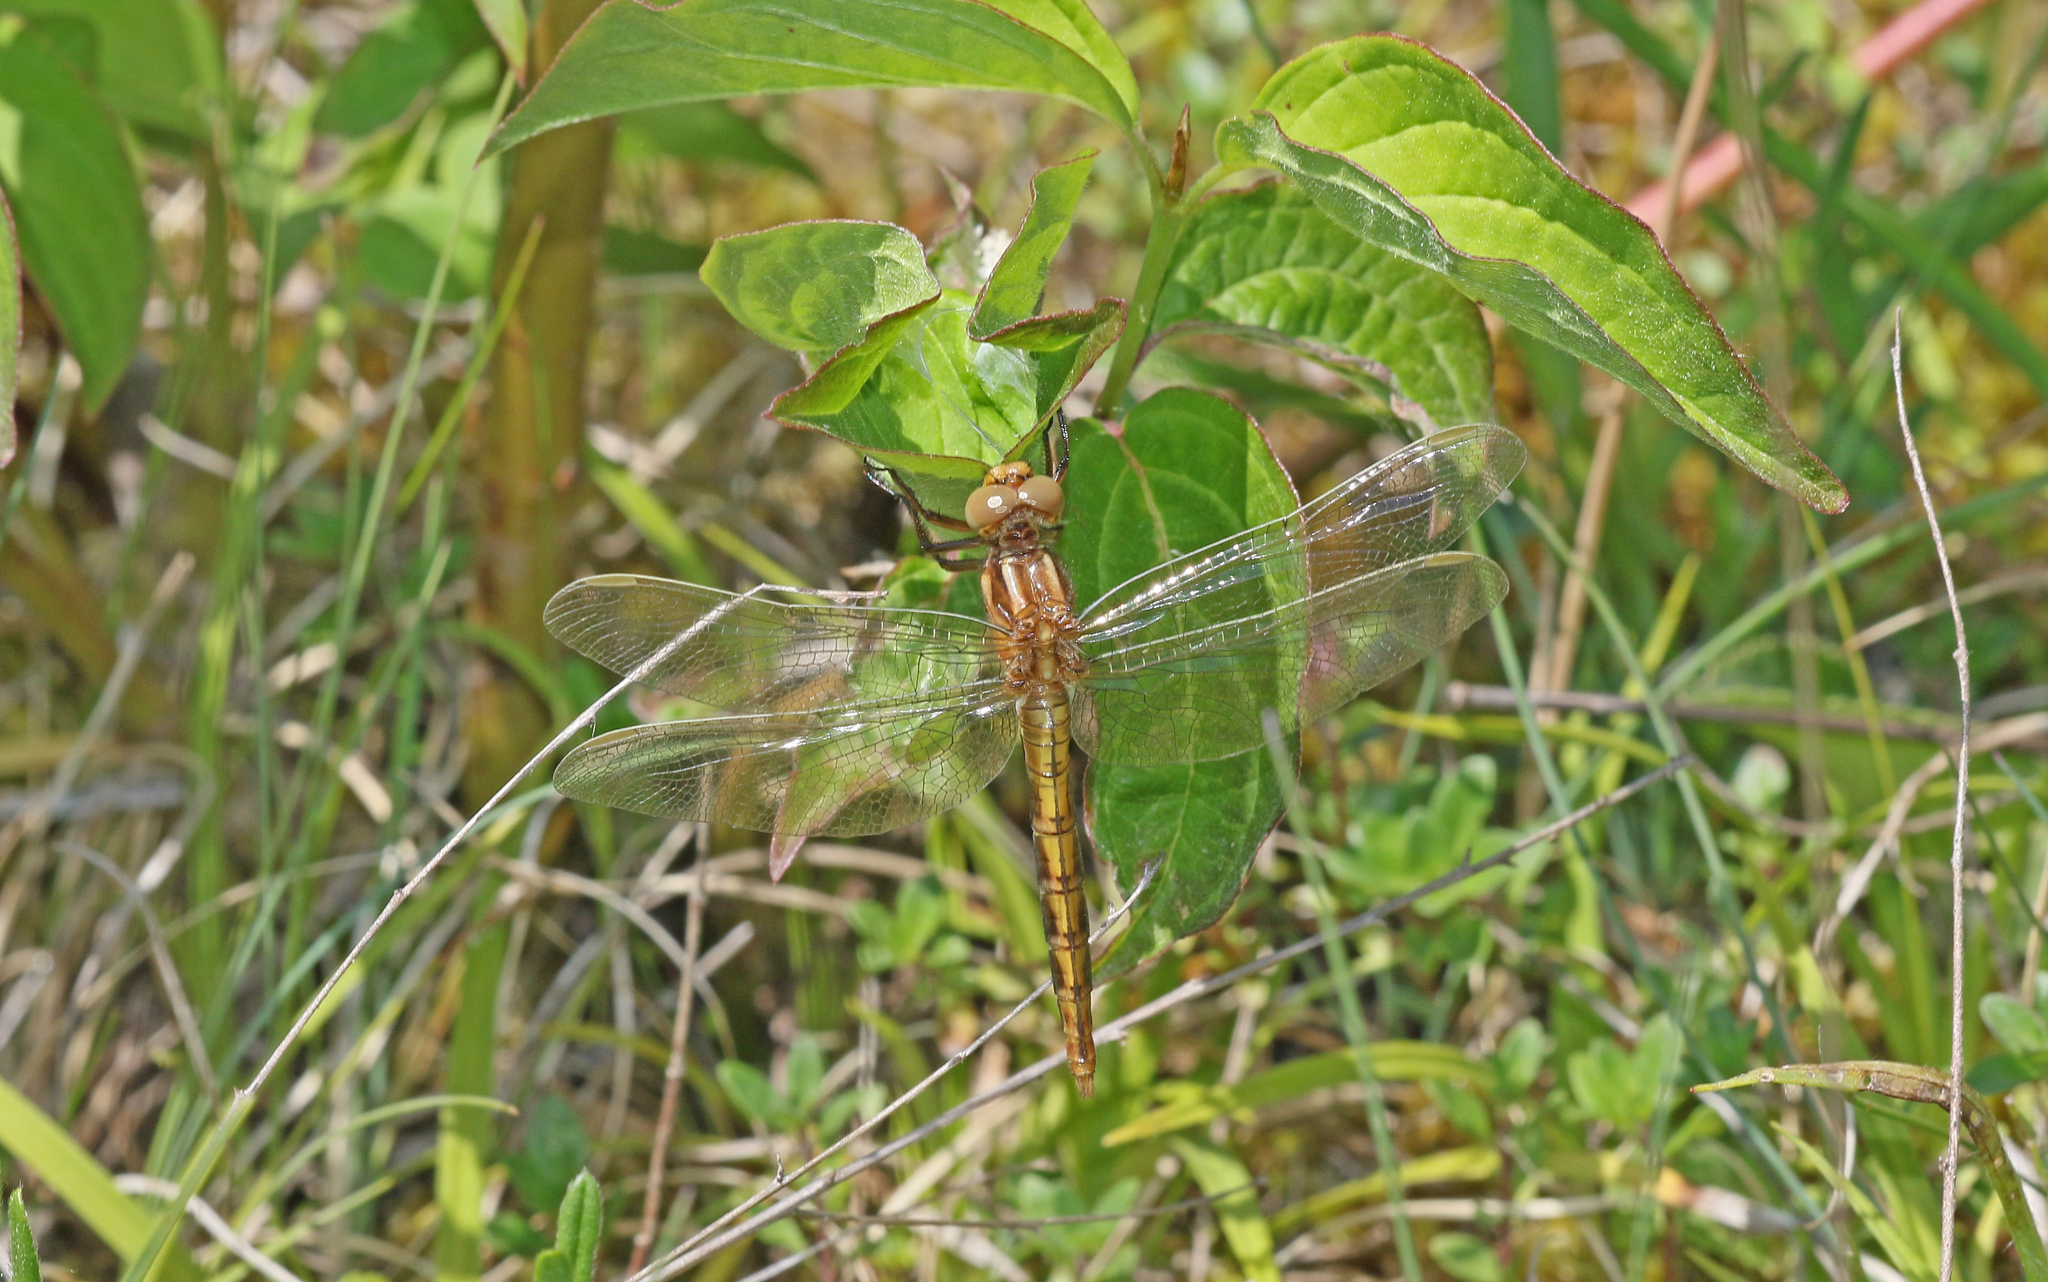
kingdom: Animalia
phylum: Arthropoda
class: Insecta
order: Odonata
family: Libellulidae
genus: Orthetrum
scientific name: Orthetrum coerulescens
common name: Keeled skimmer
